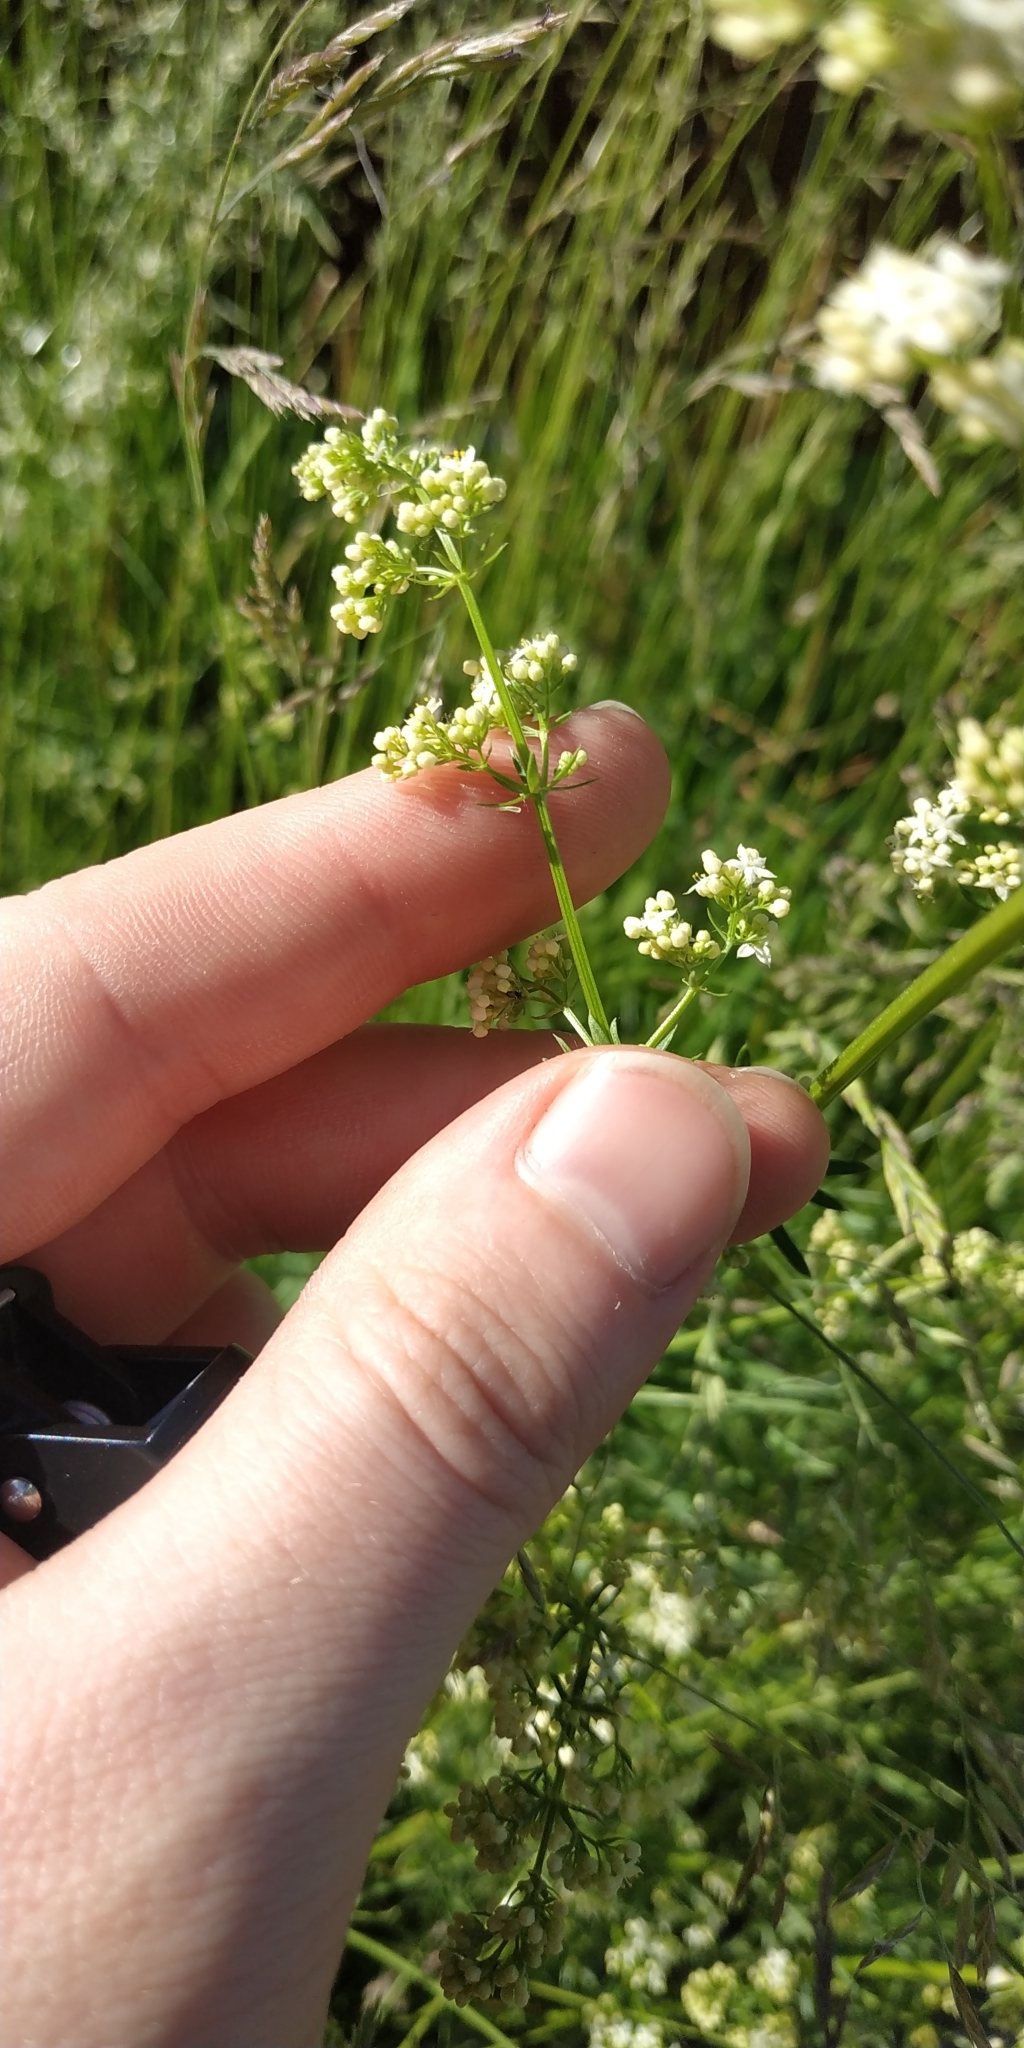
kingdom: Plantae
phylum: Tracheophyta
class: Magnoliopsida
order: Gentianales
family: Rubiaceae
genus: Galium
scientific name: Galium mollugo
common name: Hedge bedstraw
